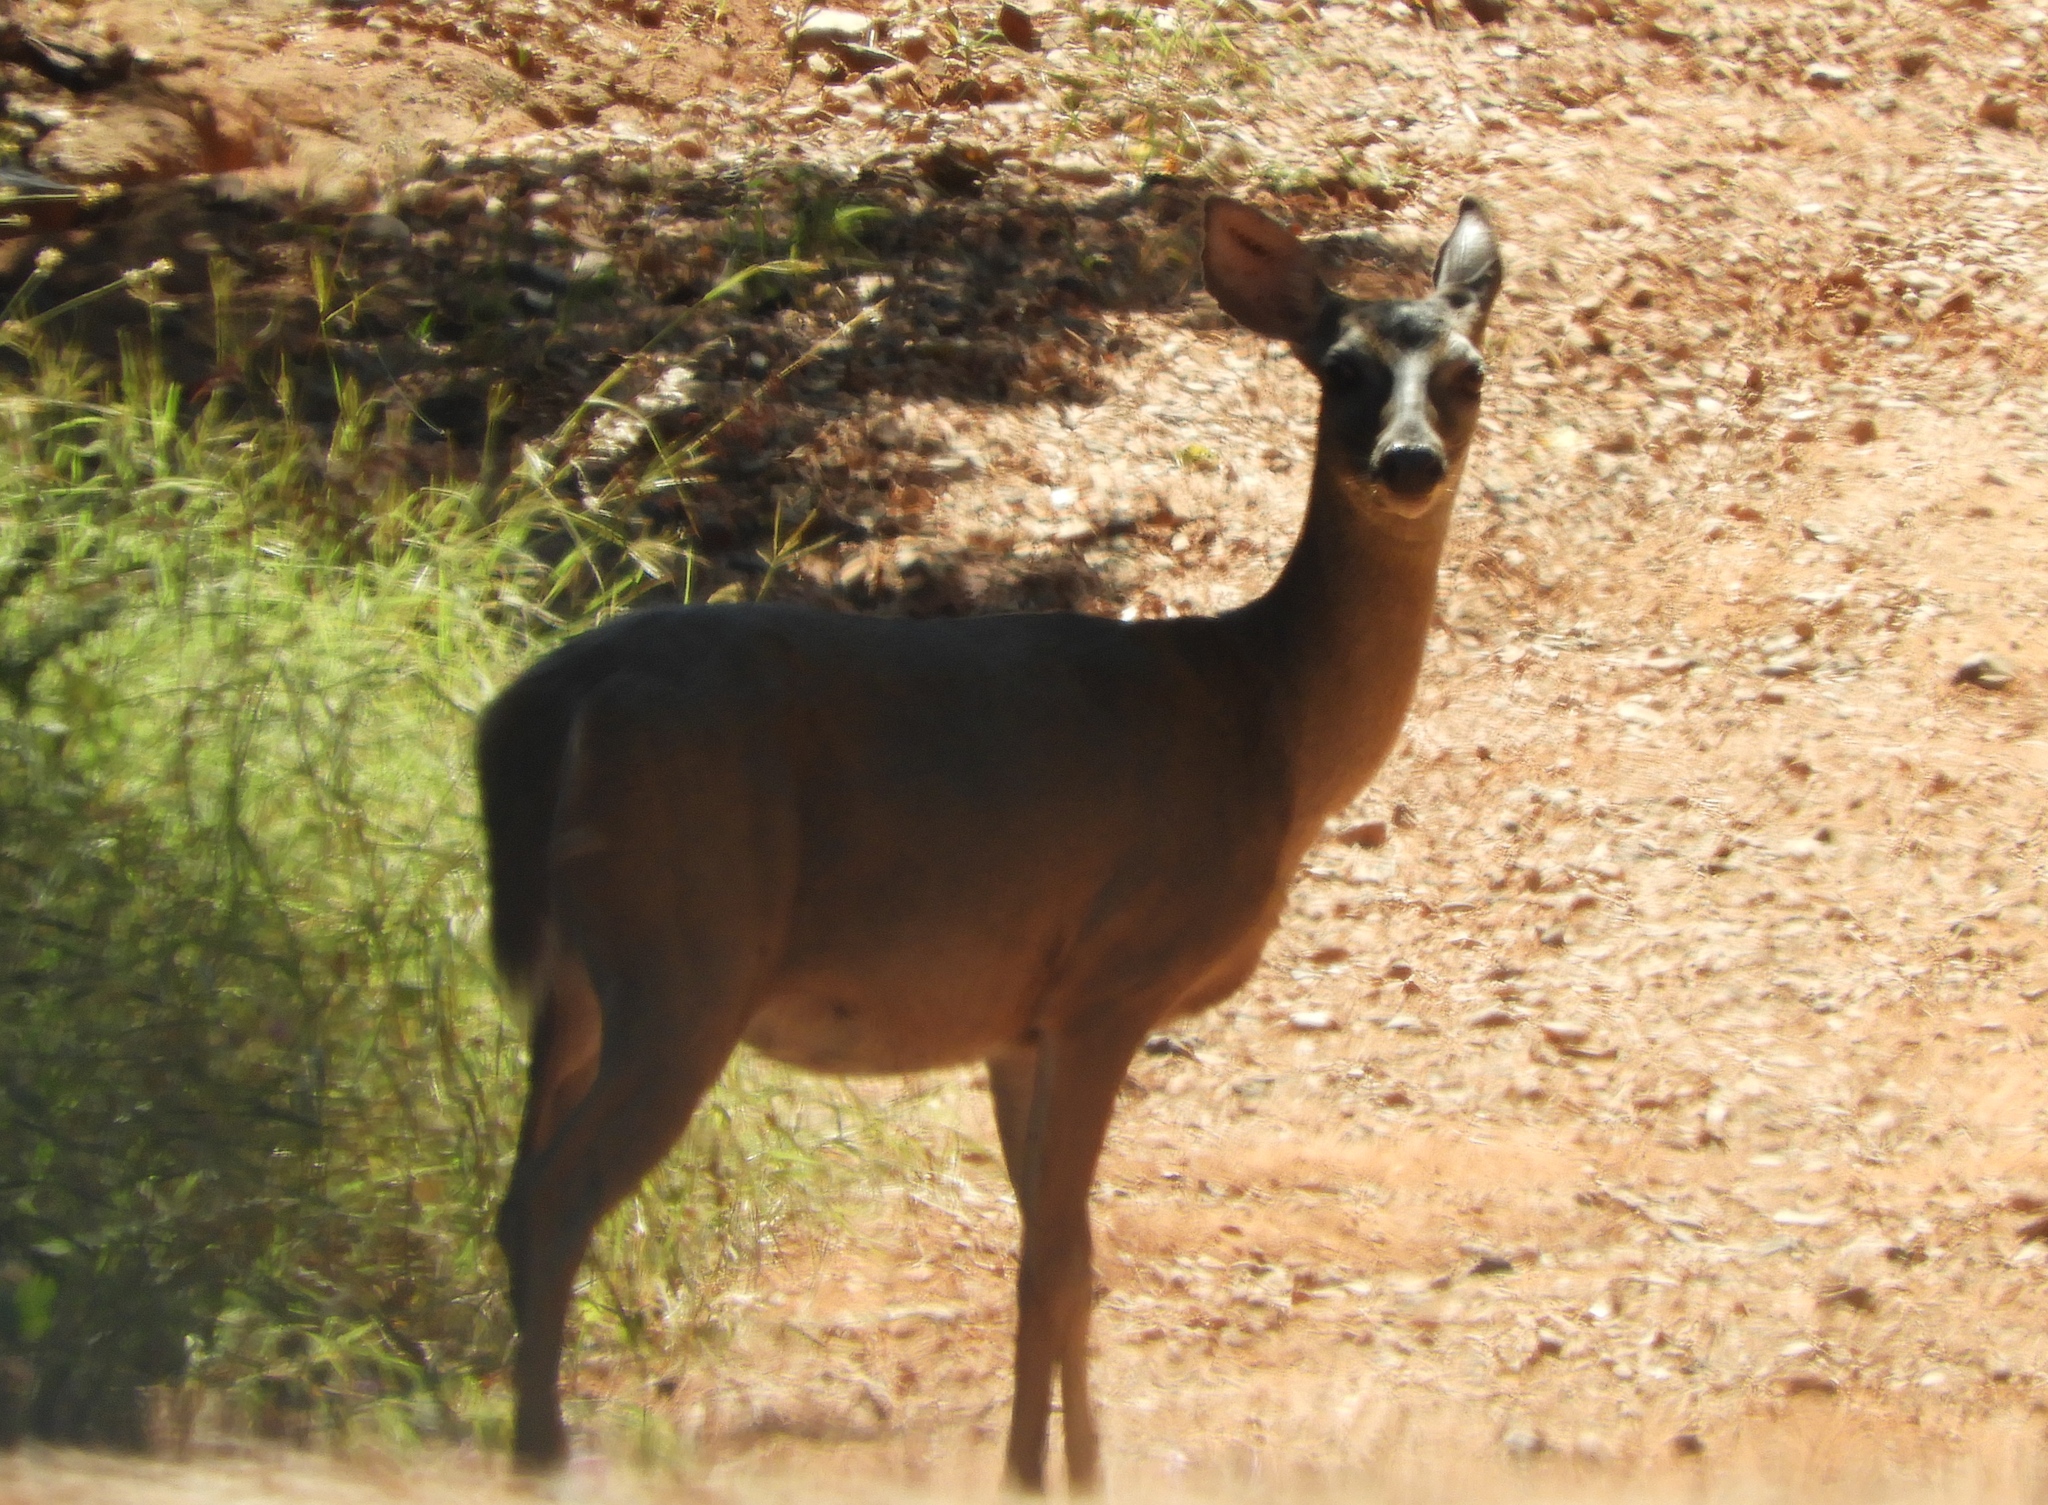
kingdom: Animalia
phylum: Chordata
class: Mammalia
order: Artiodactyla
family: Cervidae
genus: Odocoileus
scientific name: Odocoileus virginianus
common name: White-tailed deer
